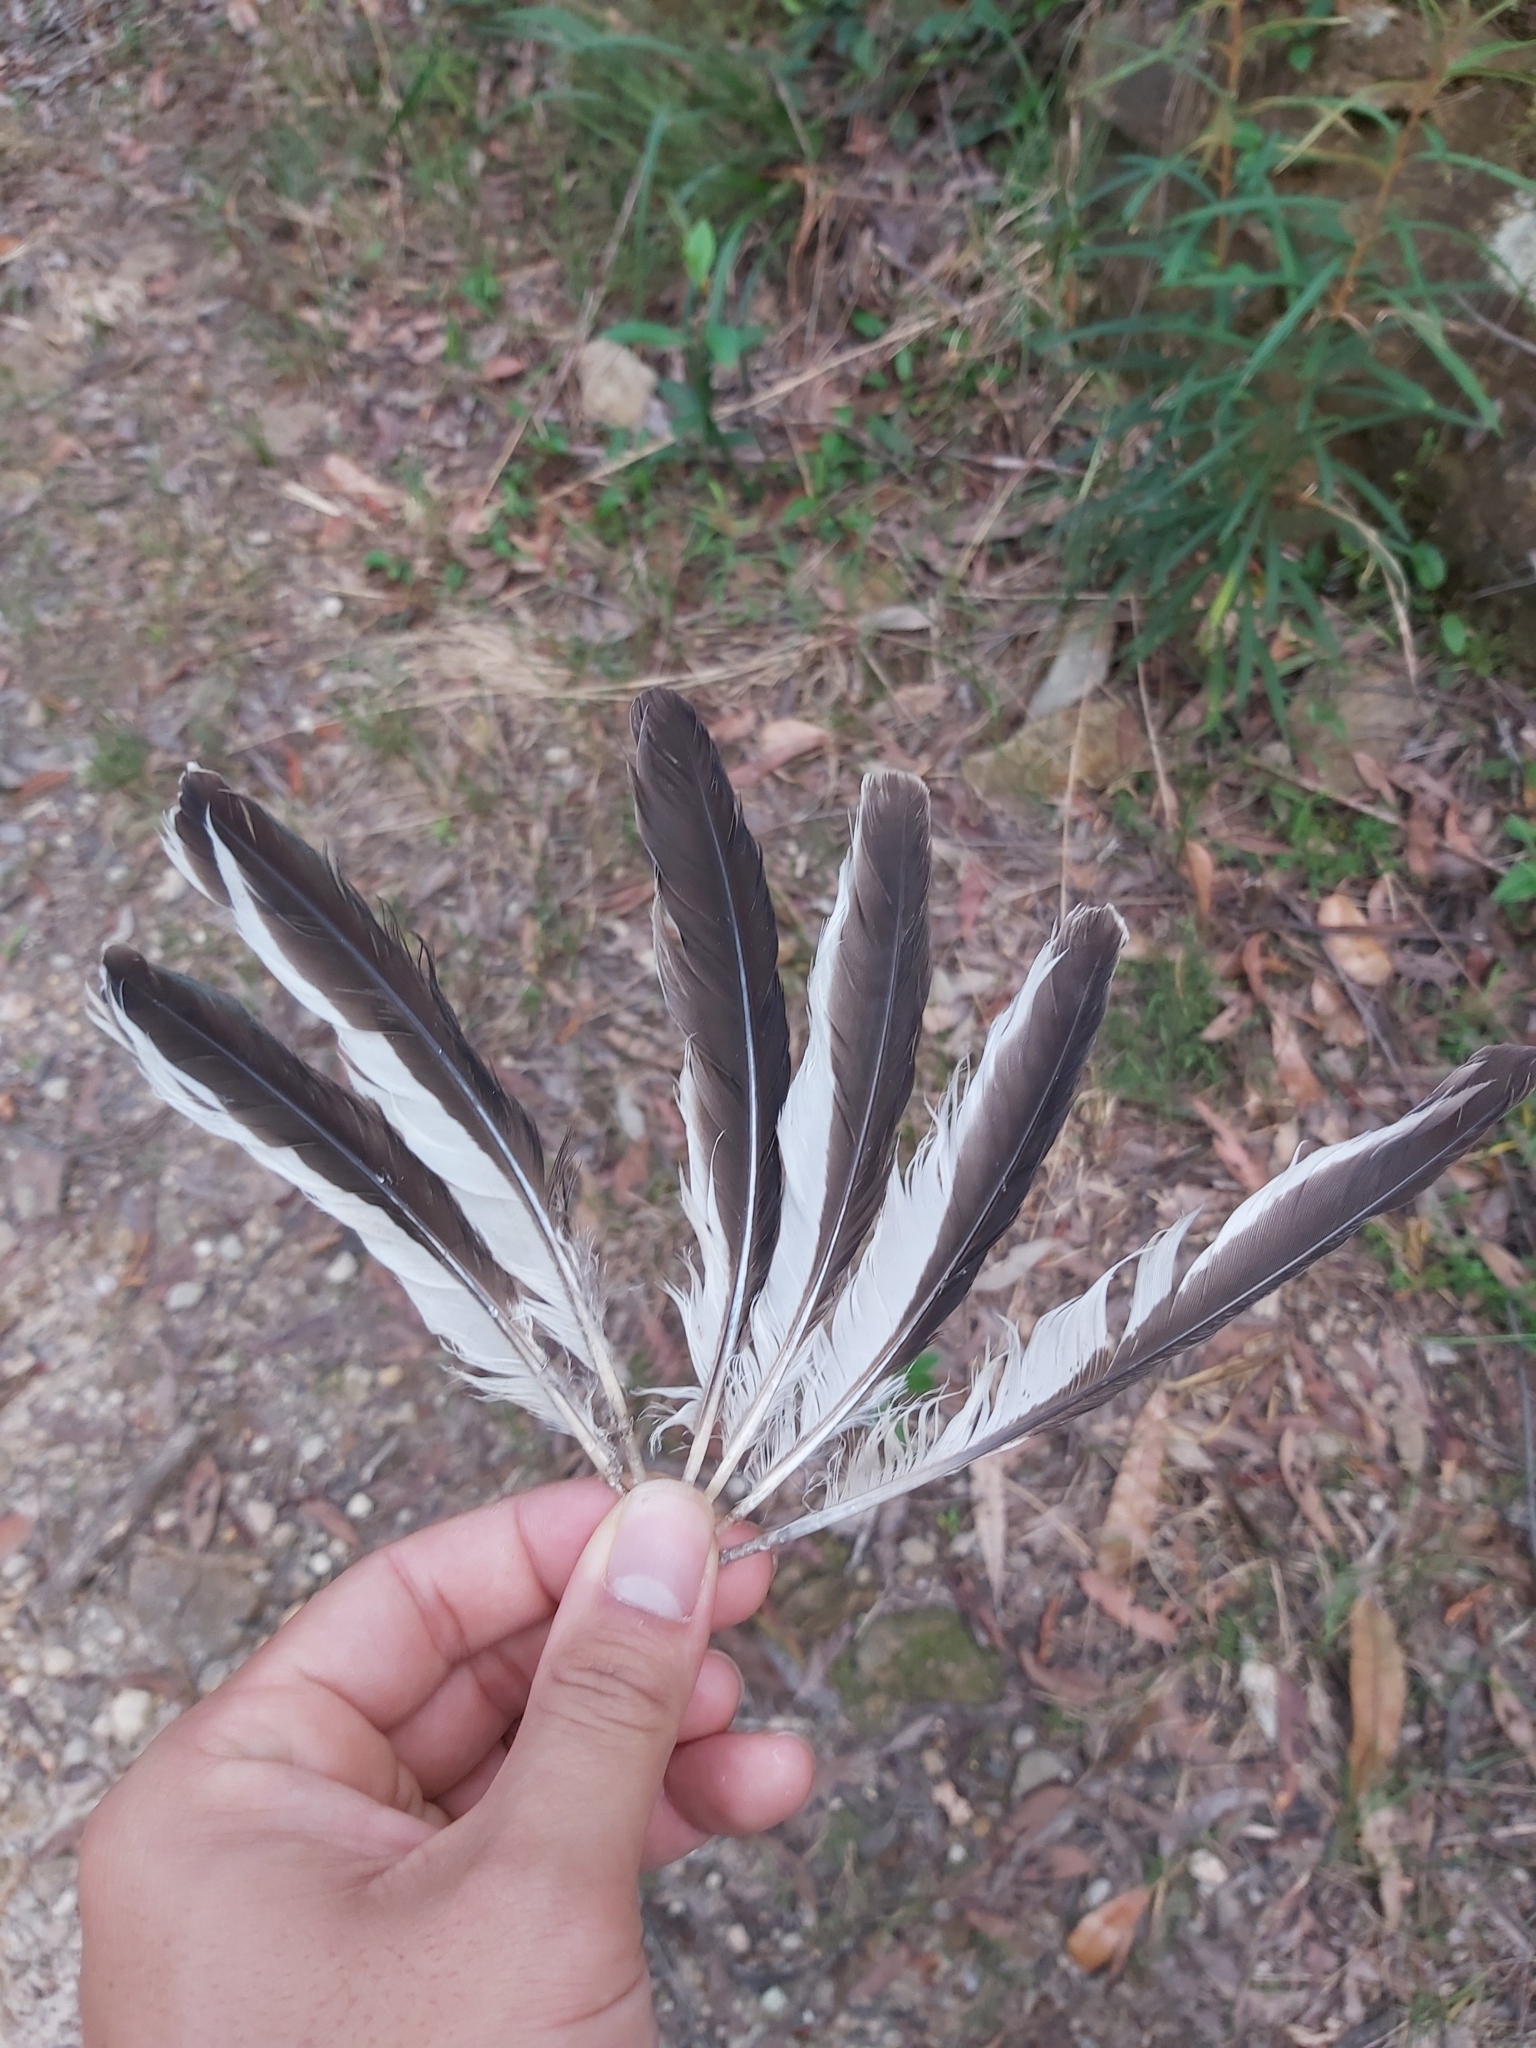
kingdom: Animalia
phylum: Chordata
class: Aves
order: Coraciiformes
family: Alcedinidae
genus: Dacelo
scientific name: Dacelo novaeguineae
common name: Laughing kookaburra
